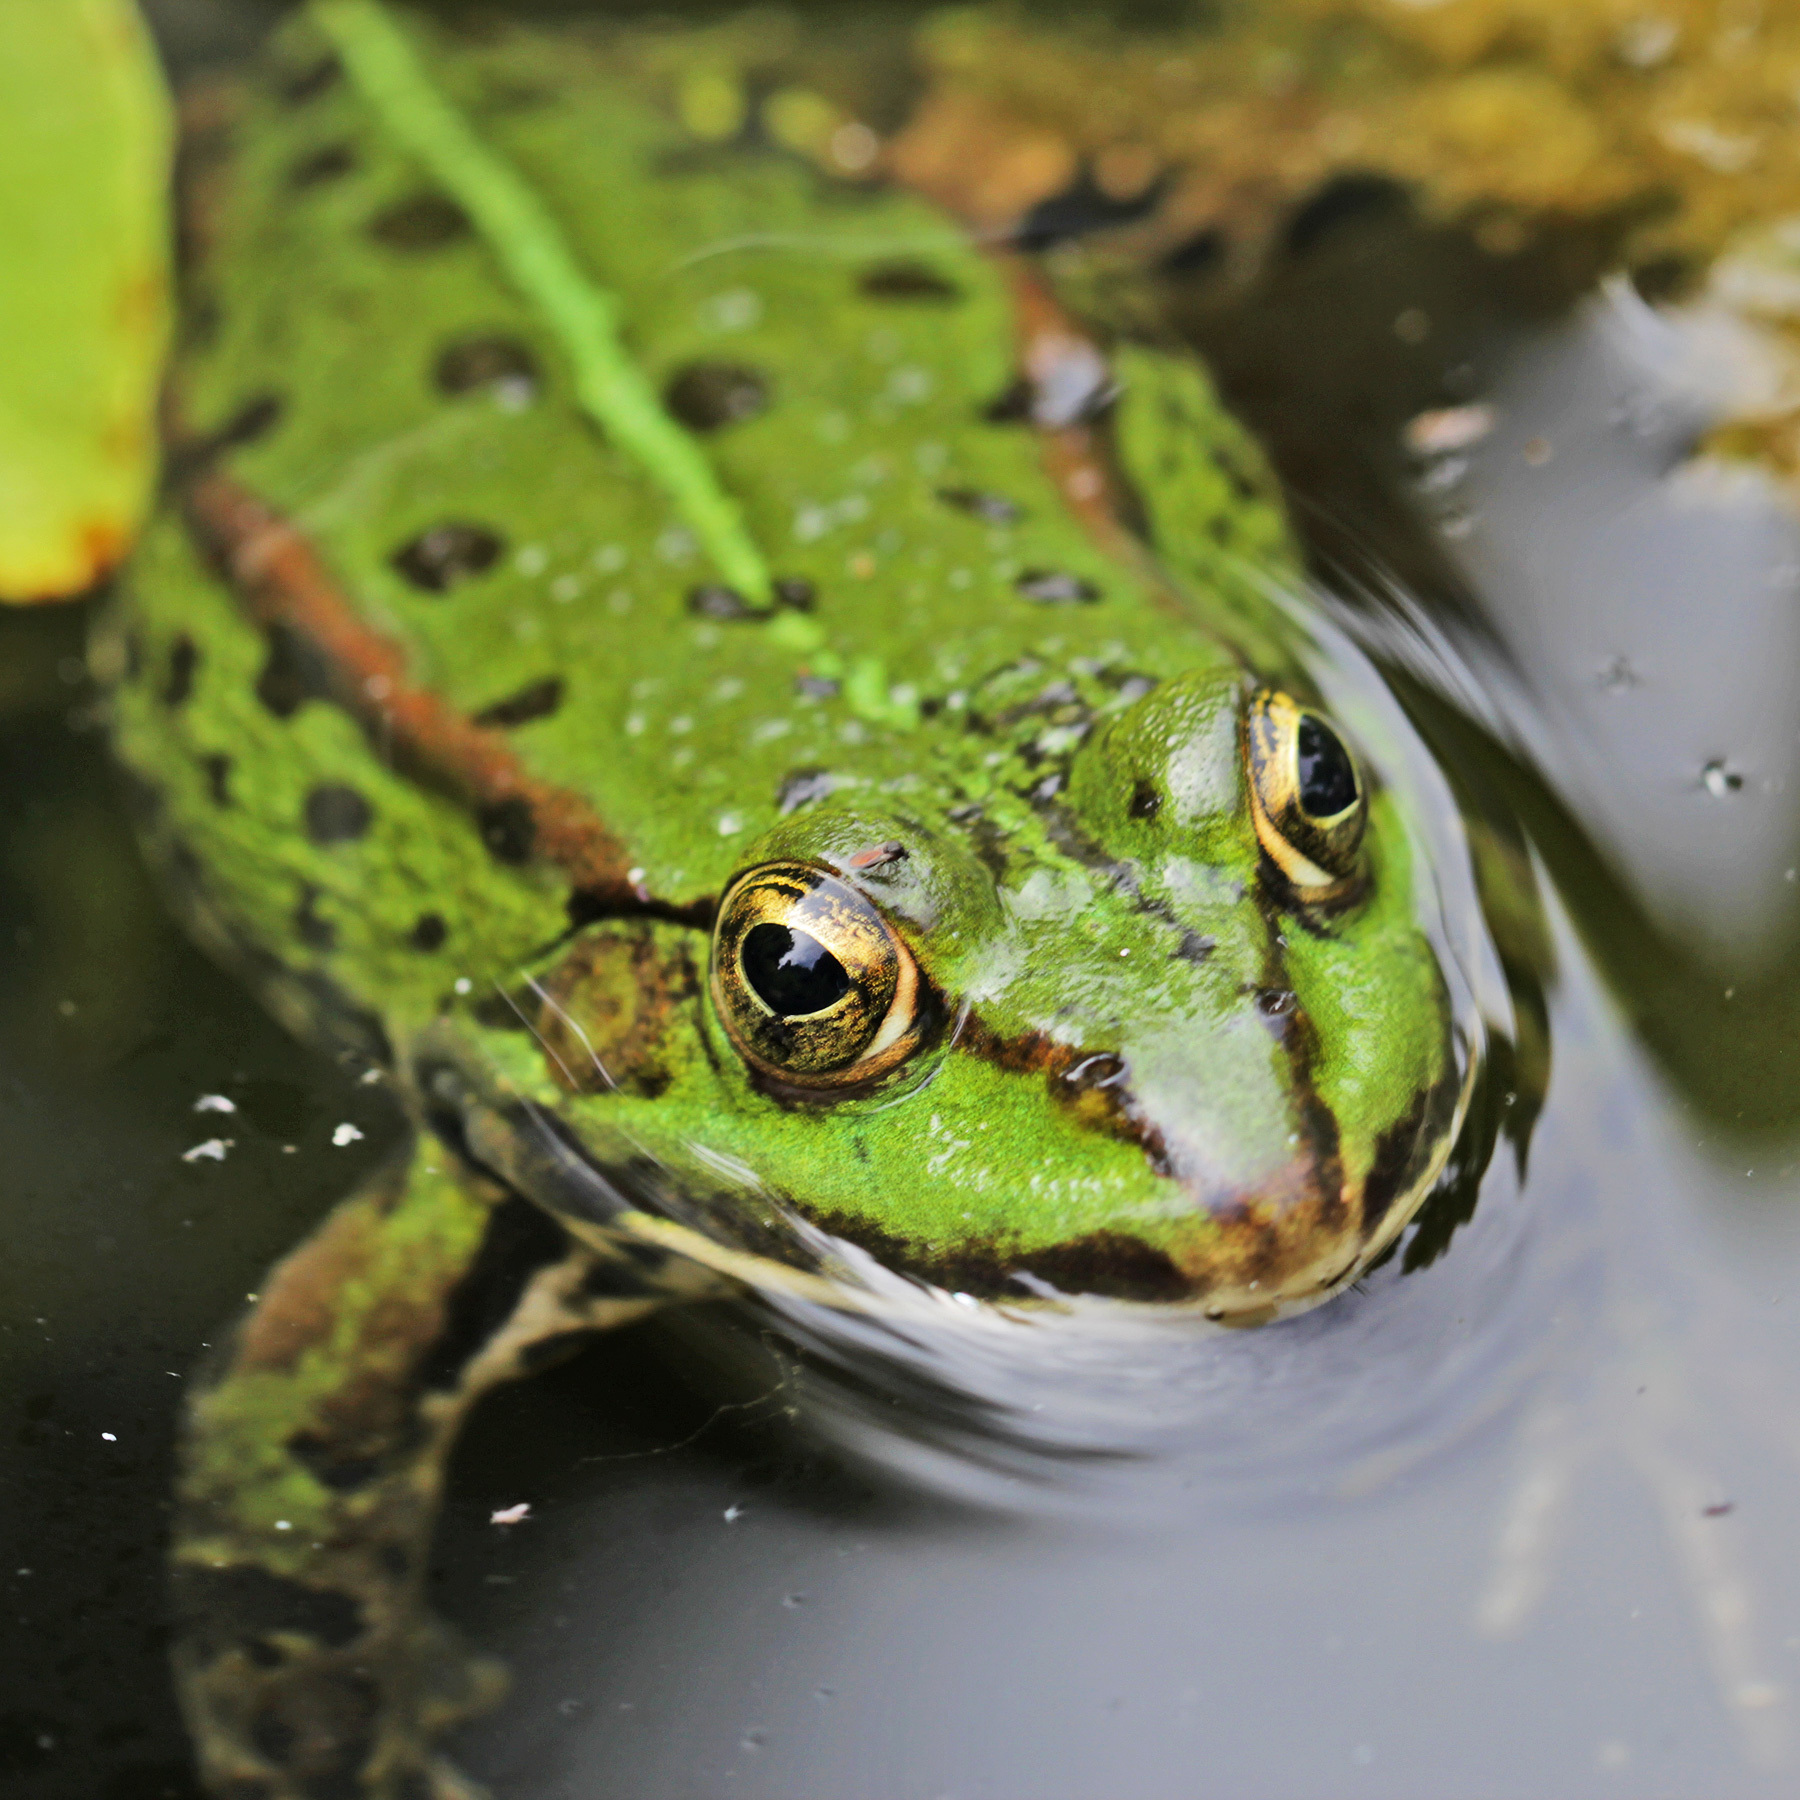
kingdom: Animalia
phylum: Chordata
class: Amphibia
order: Anura
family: Ranidae
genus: Pelophylax
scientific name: Pelophylax
